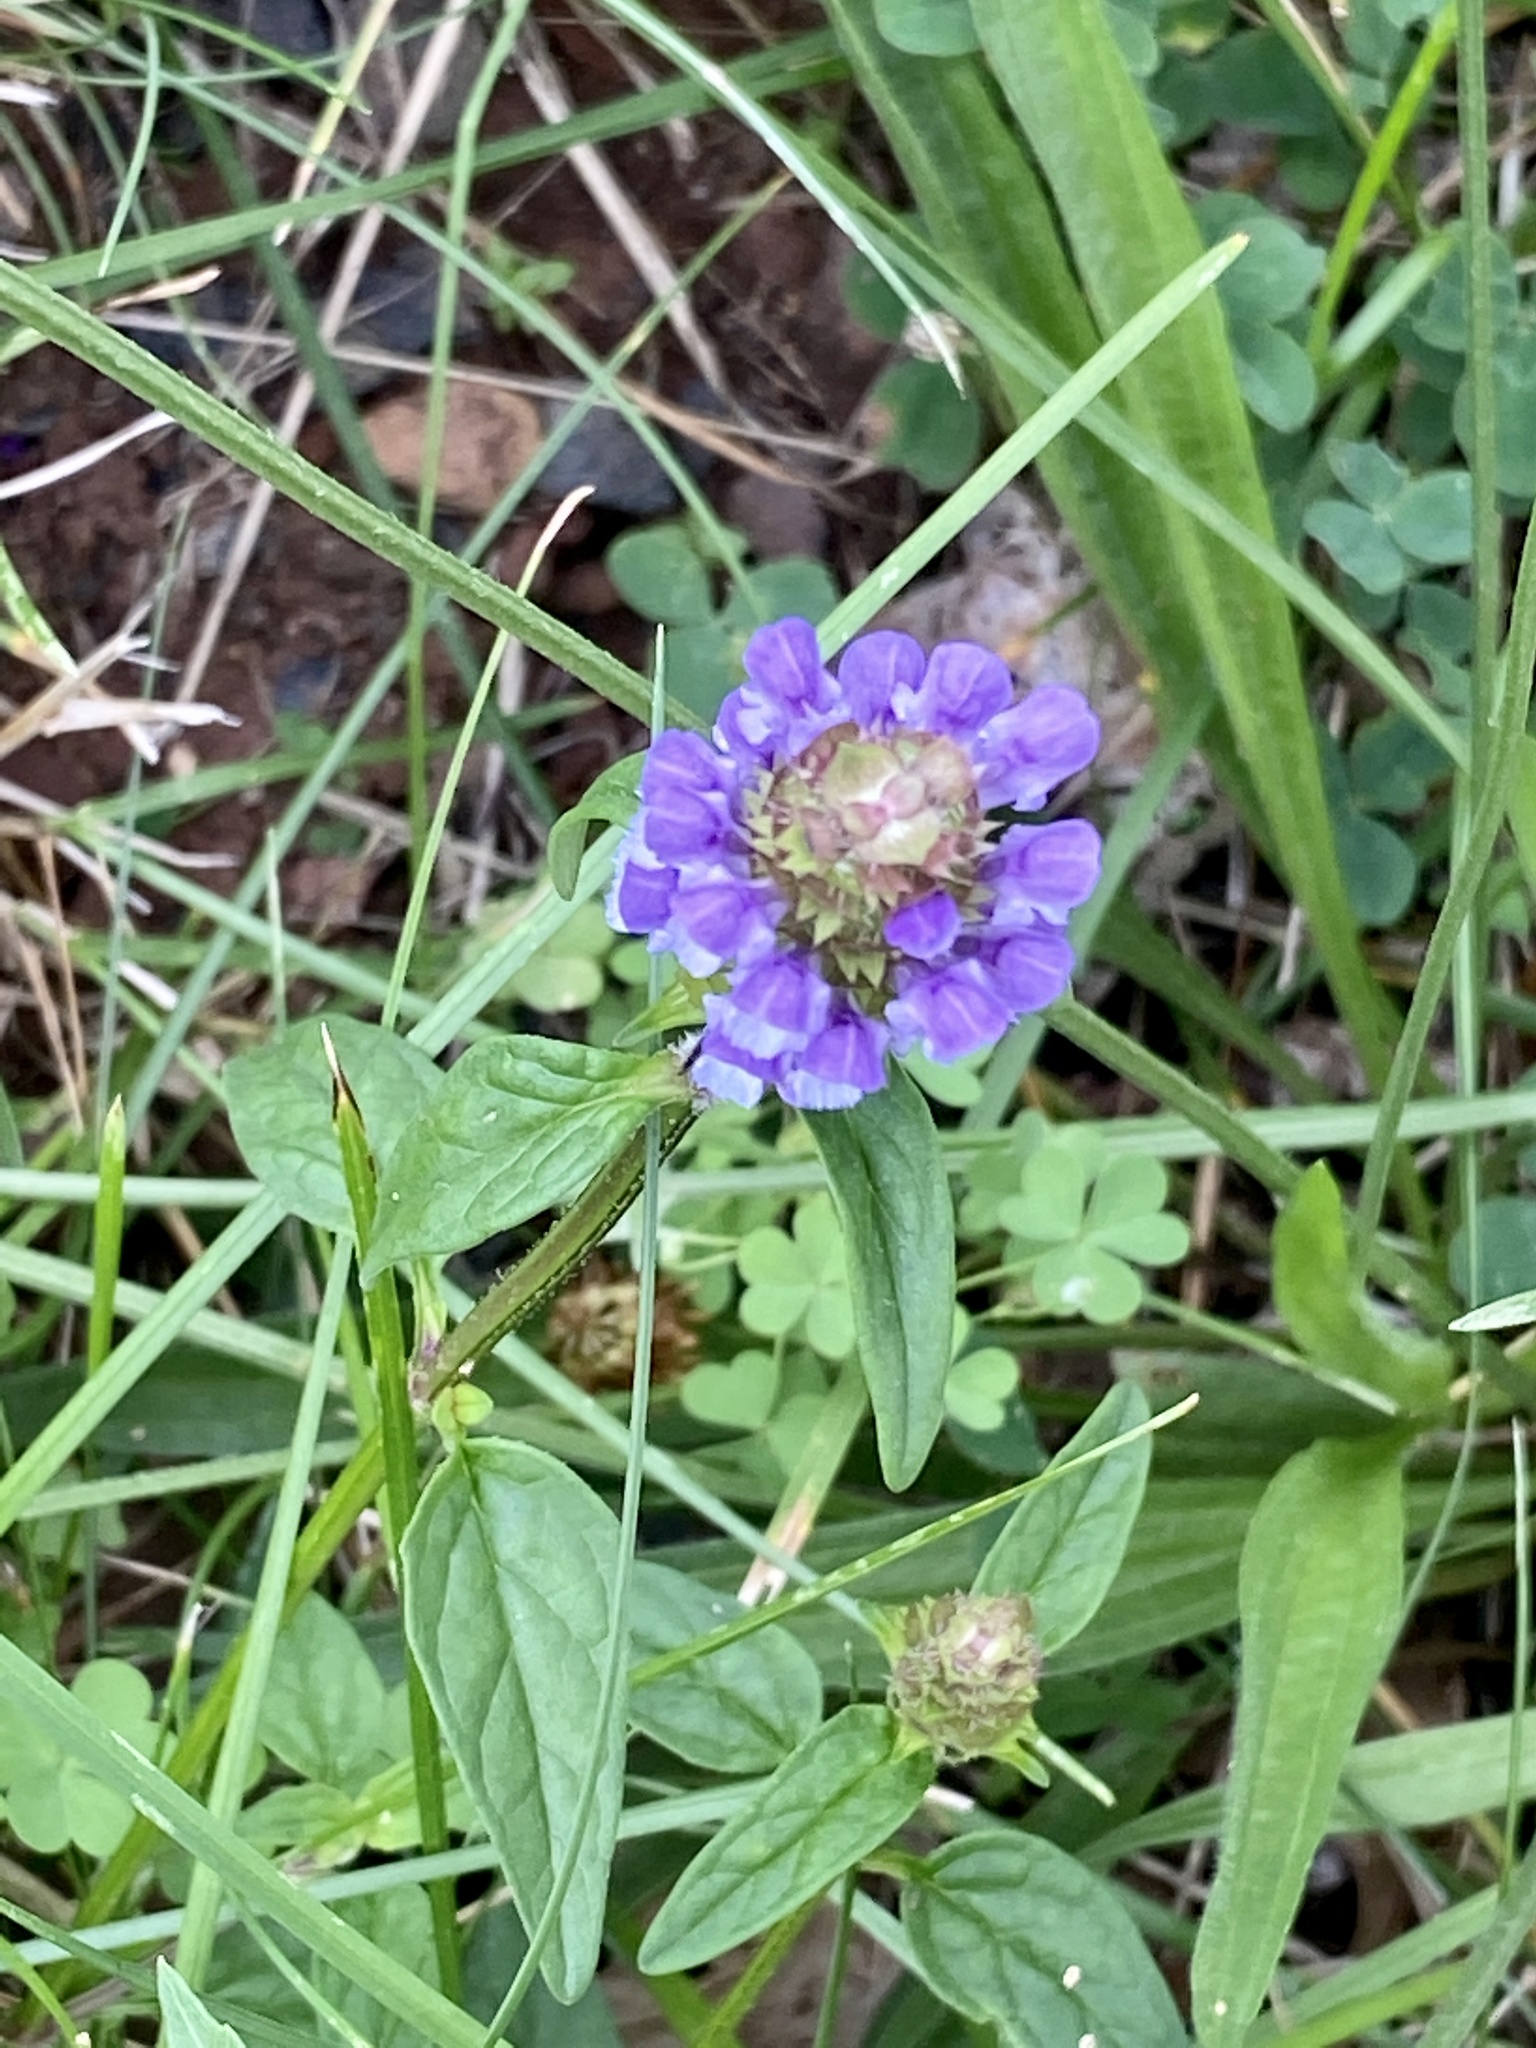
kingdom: Plantae
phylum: Tracheophyta
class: Magnoliopsida
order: Lamiales
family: Lamiaceae
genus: Prunella
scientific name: Prunella vulgaris
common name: Heal-all
